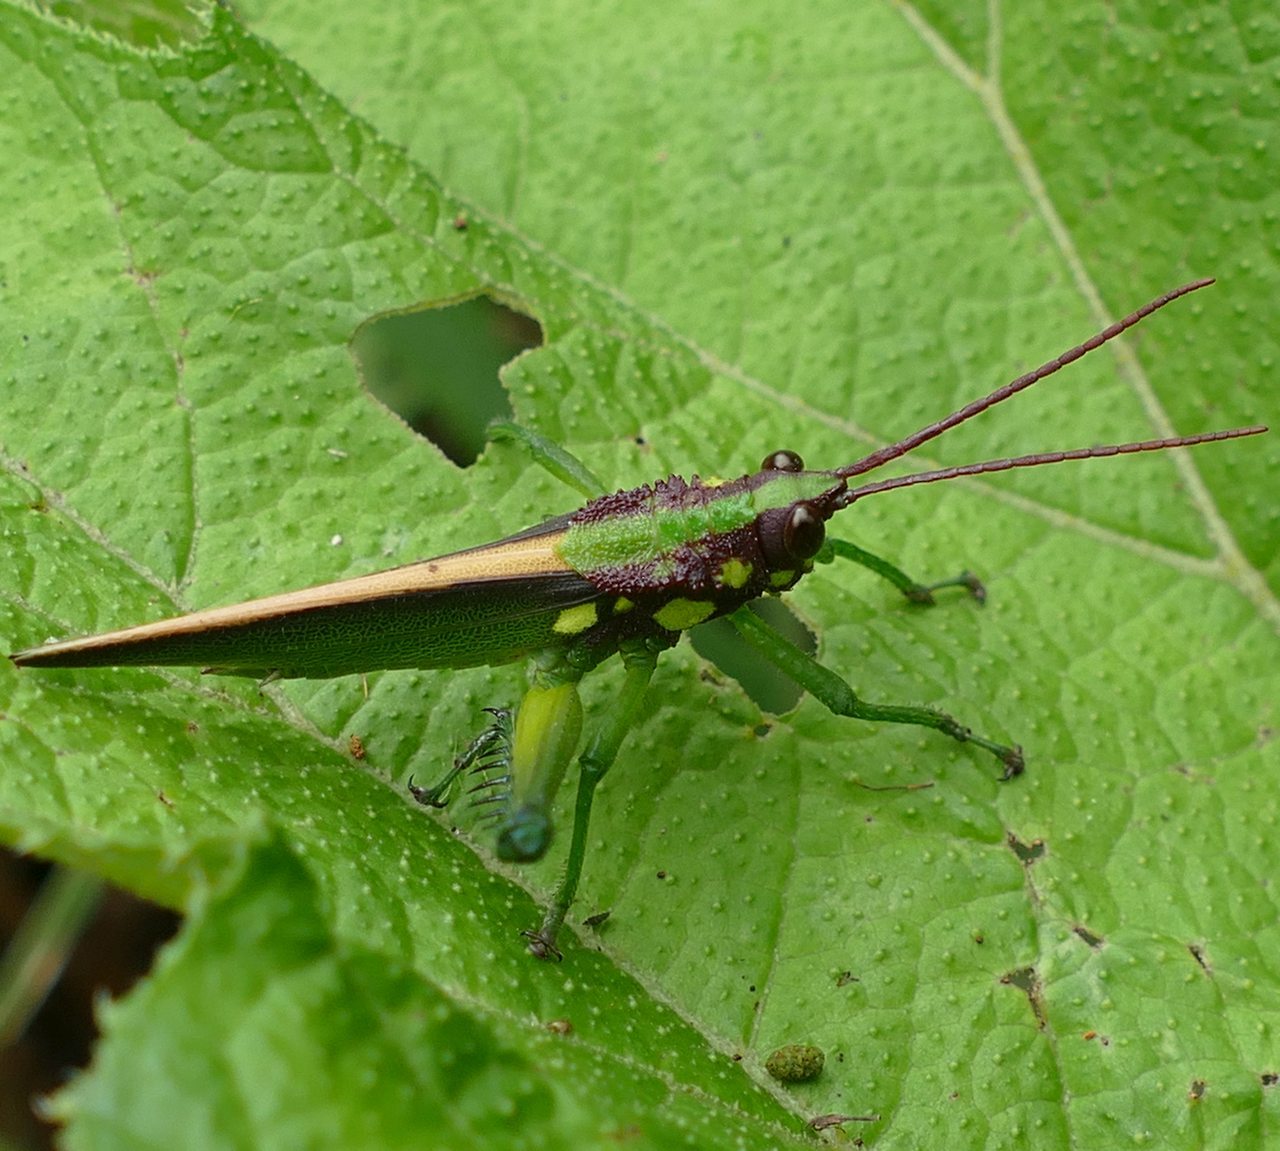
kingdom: Animalia
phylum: Arthropoda
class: Insecta
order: Orthoptera
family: Romaleidae
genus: Agriacris
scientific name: Agriacris magnifica
